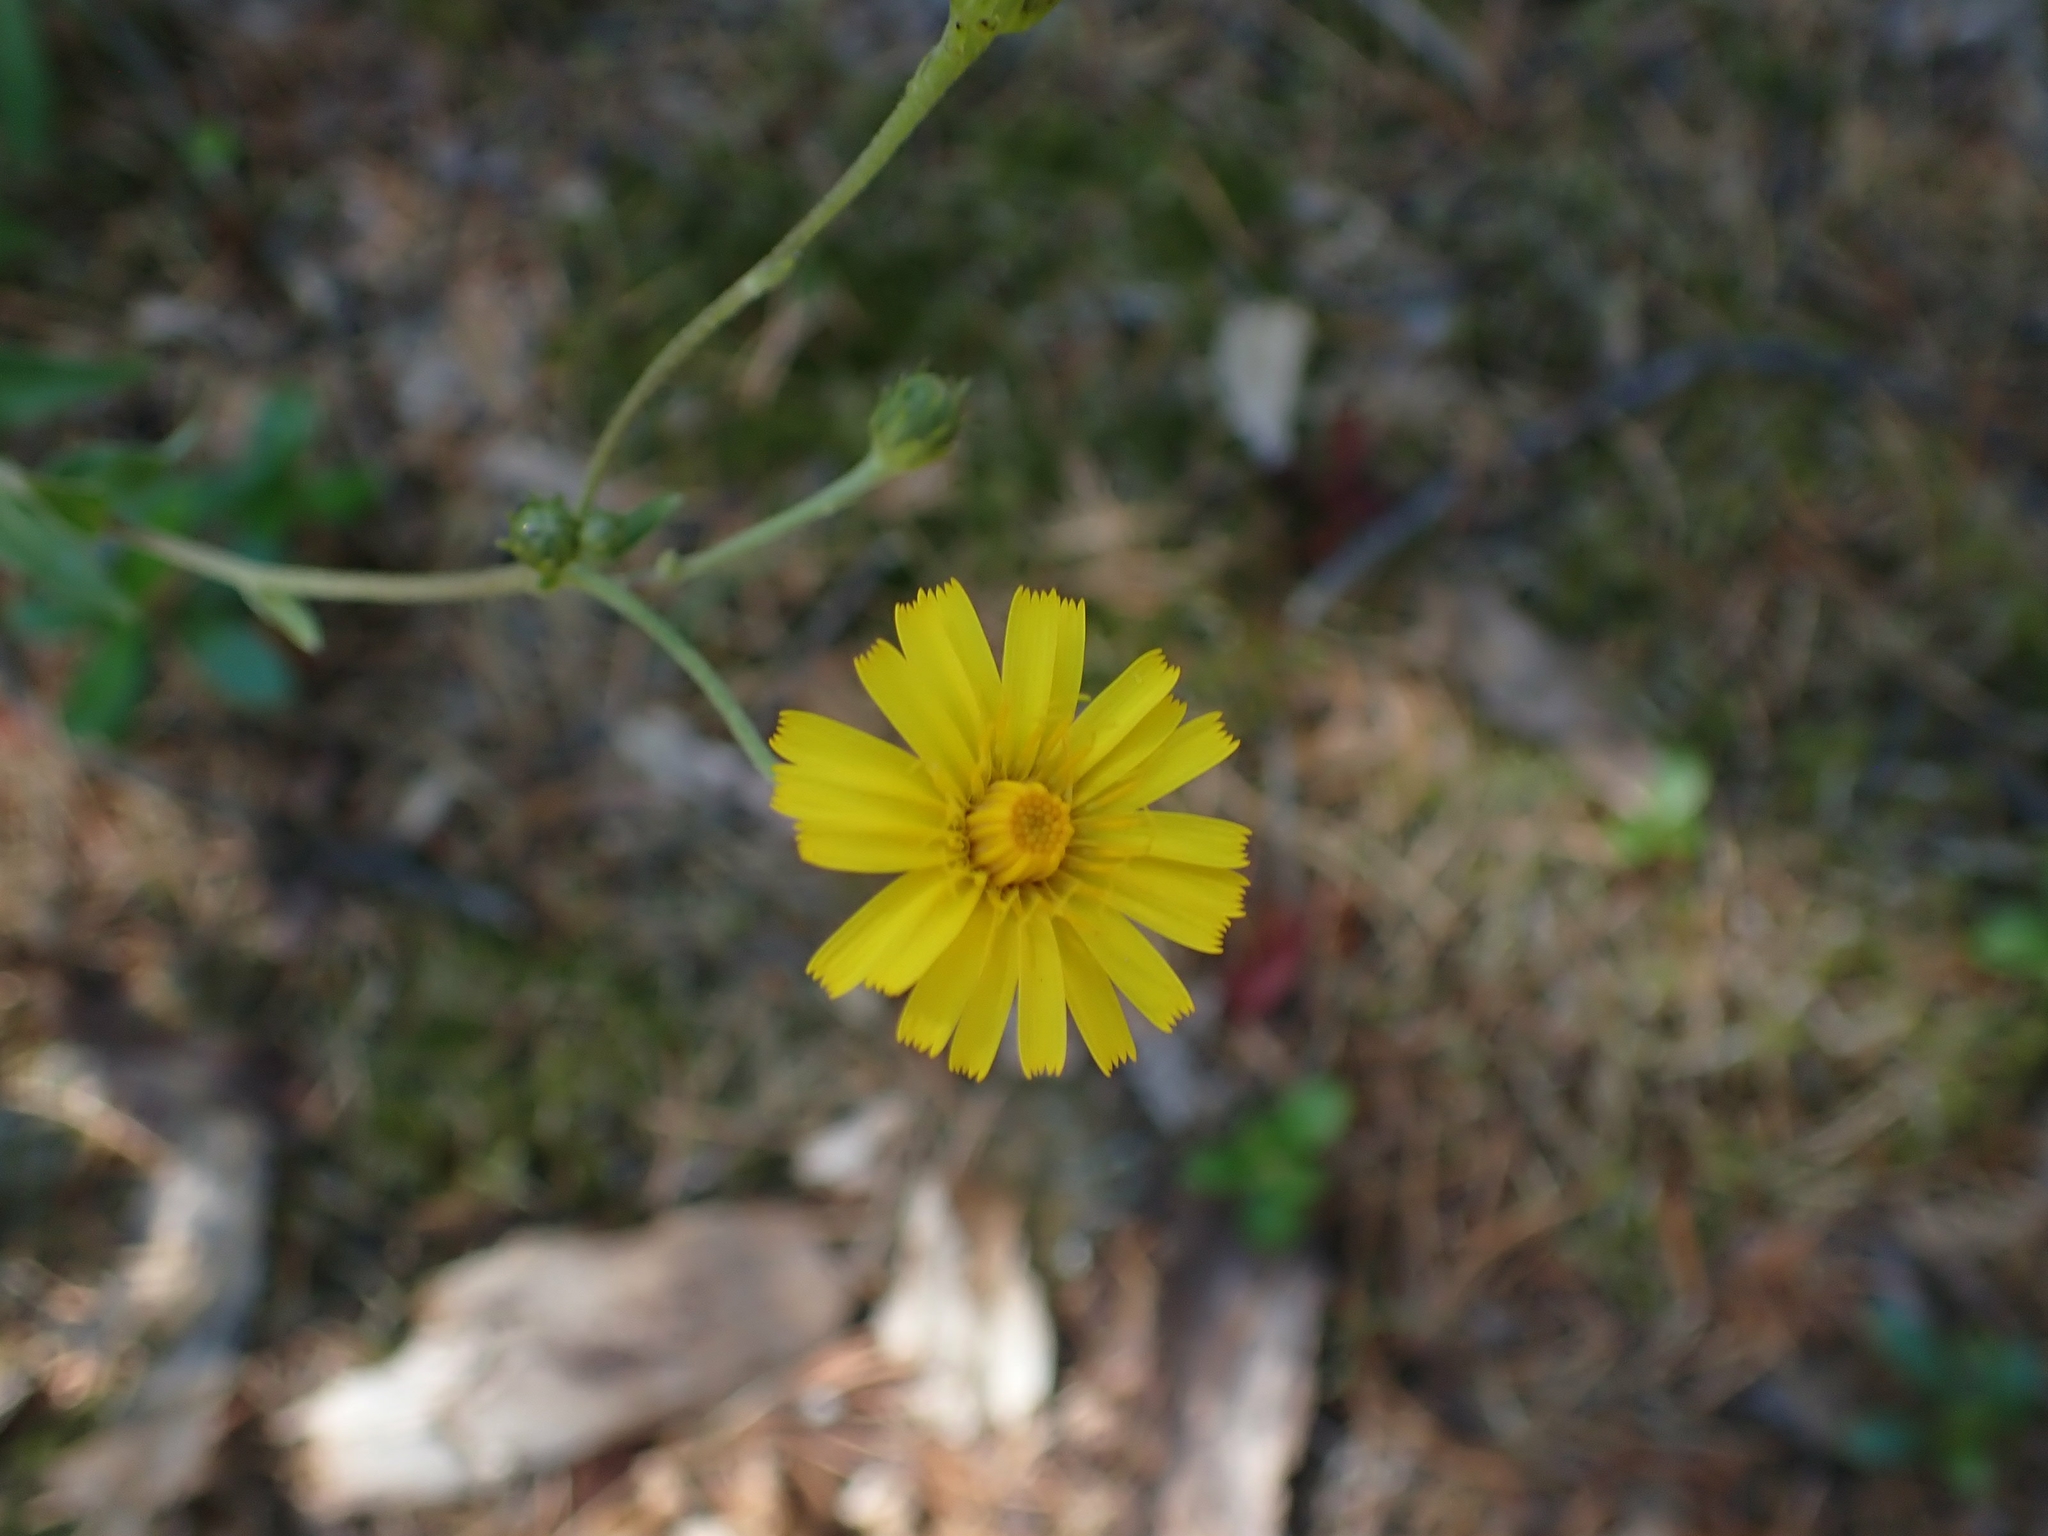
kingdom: Plantae
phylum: Tracheophyta
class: Magnoliopsida
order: Asterales
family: Asteraceae
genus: Hieracium
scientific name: Hieracium umbellatum
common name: Northern hawkweed
